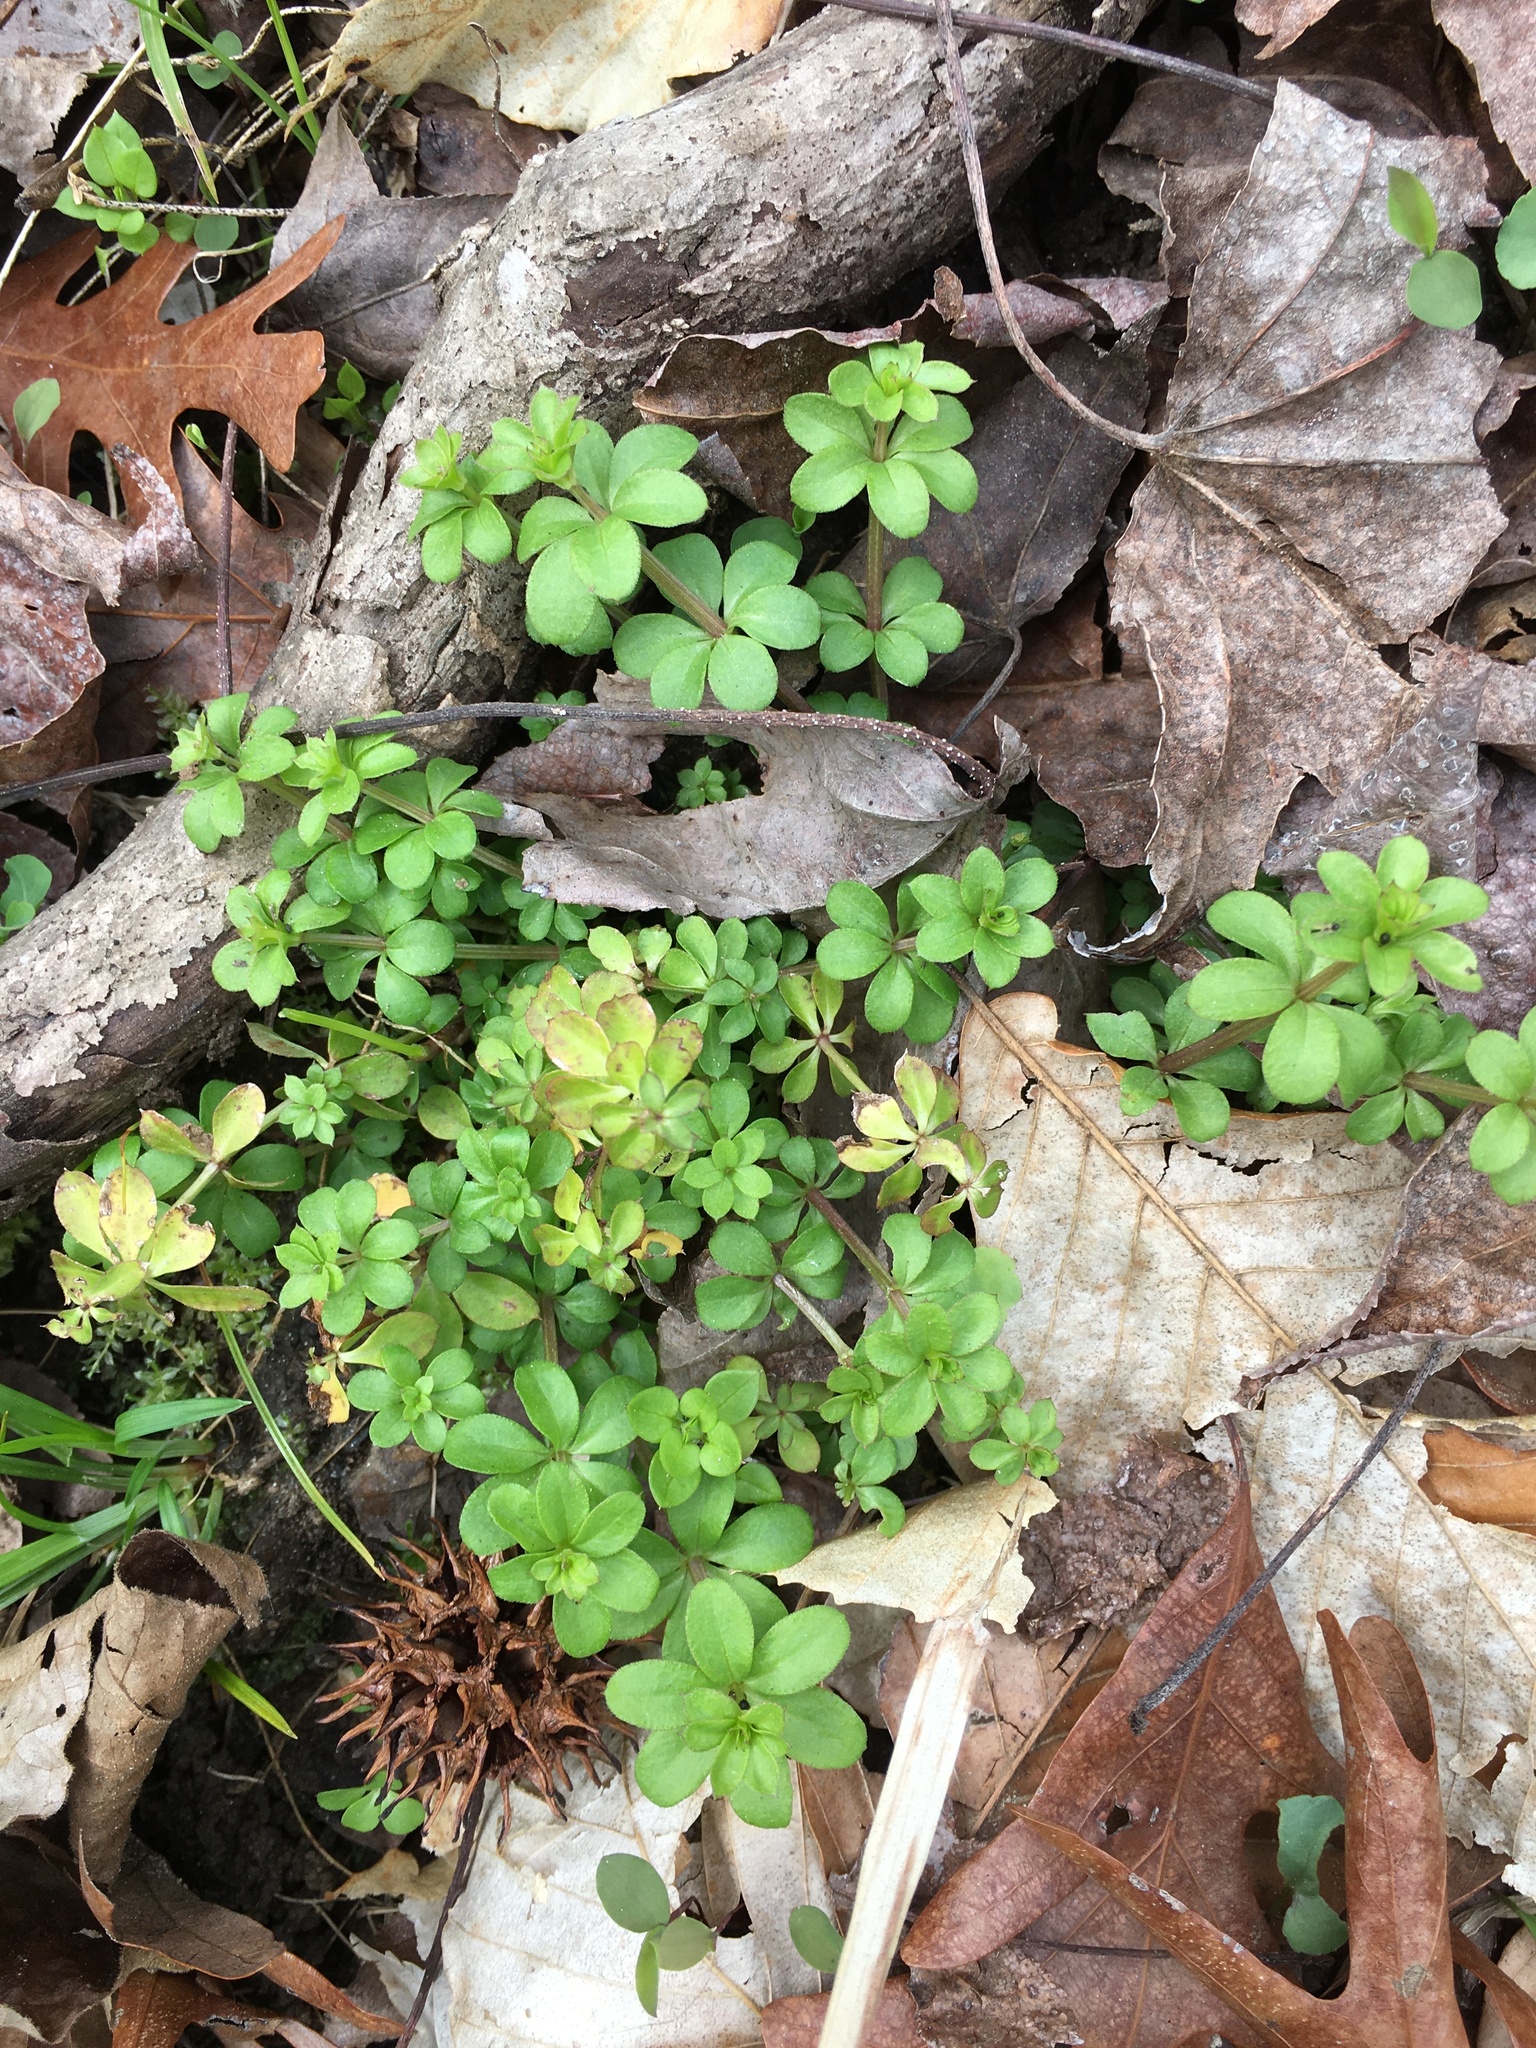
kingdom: Plantae
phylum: Tracheophyta
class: Magnoliopsida
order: Gentianales
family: Rubiaceae
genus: Galium
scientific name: Galium triflorum
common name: Fragrant bedstraw
